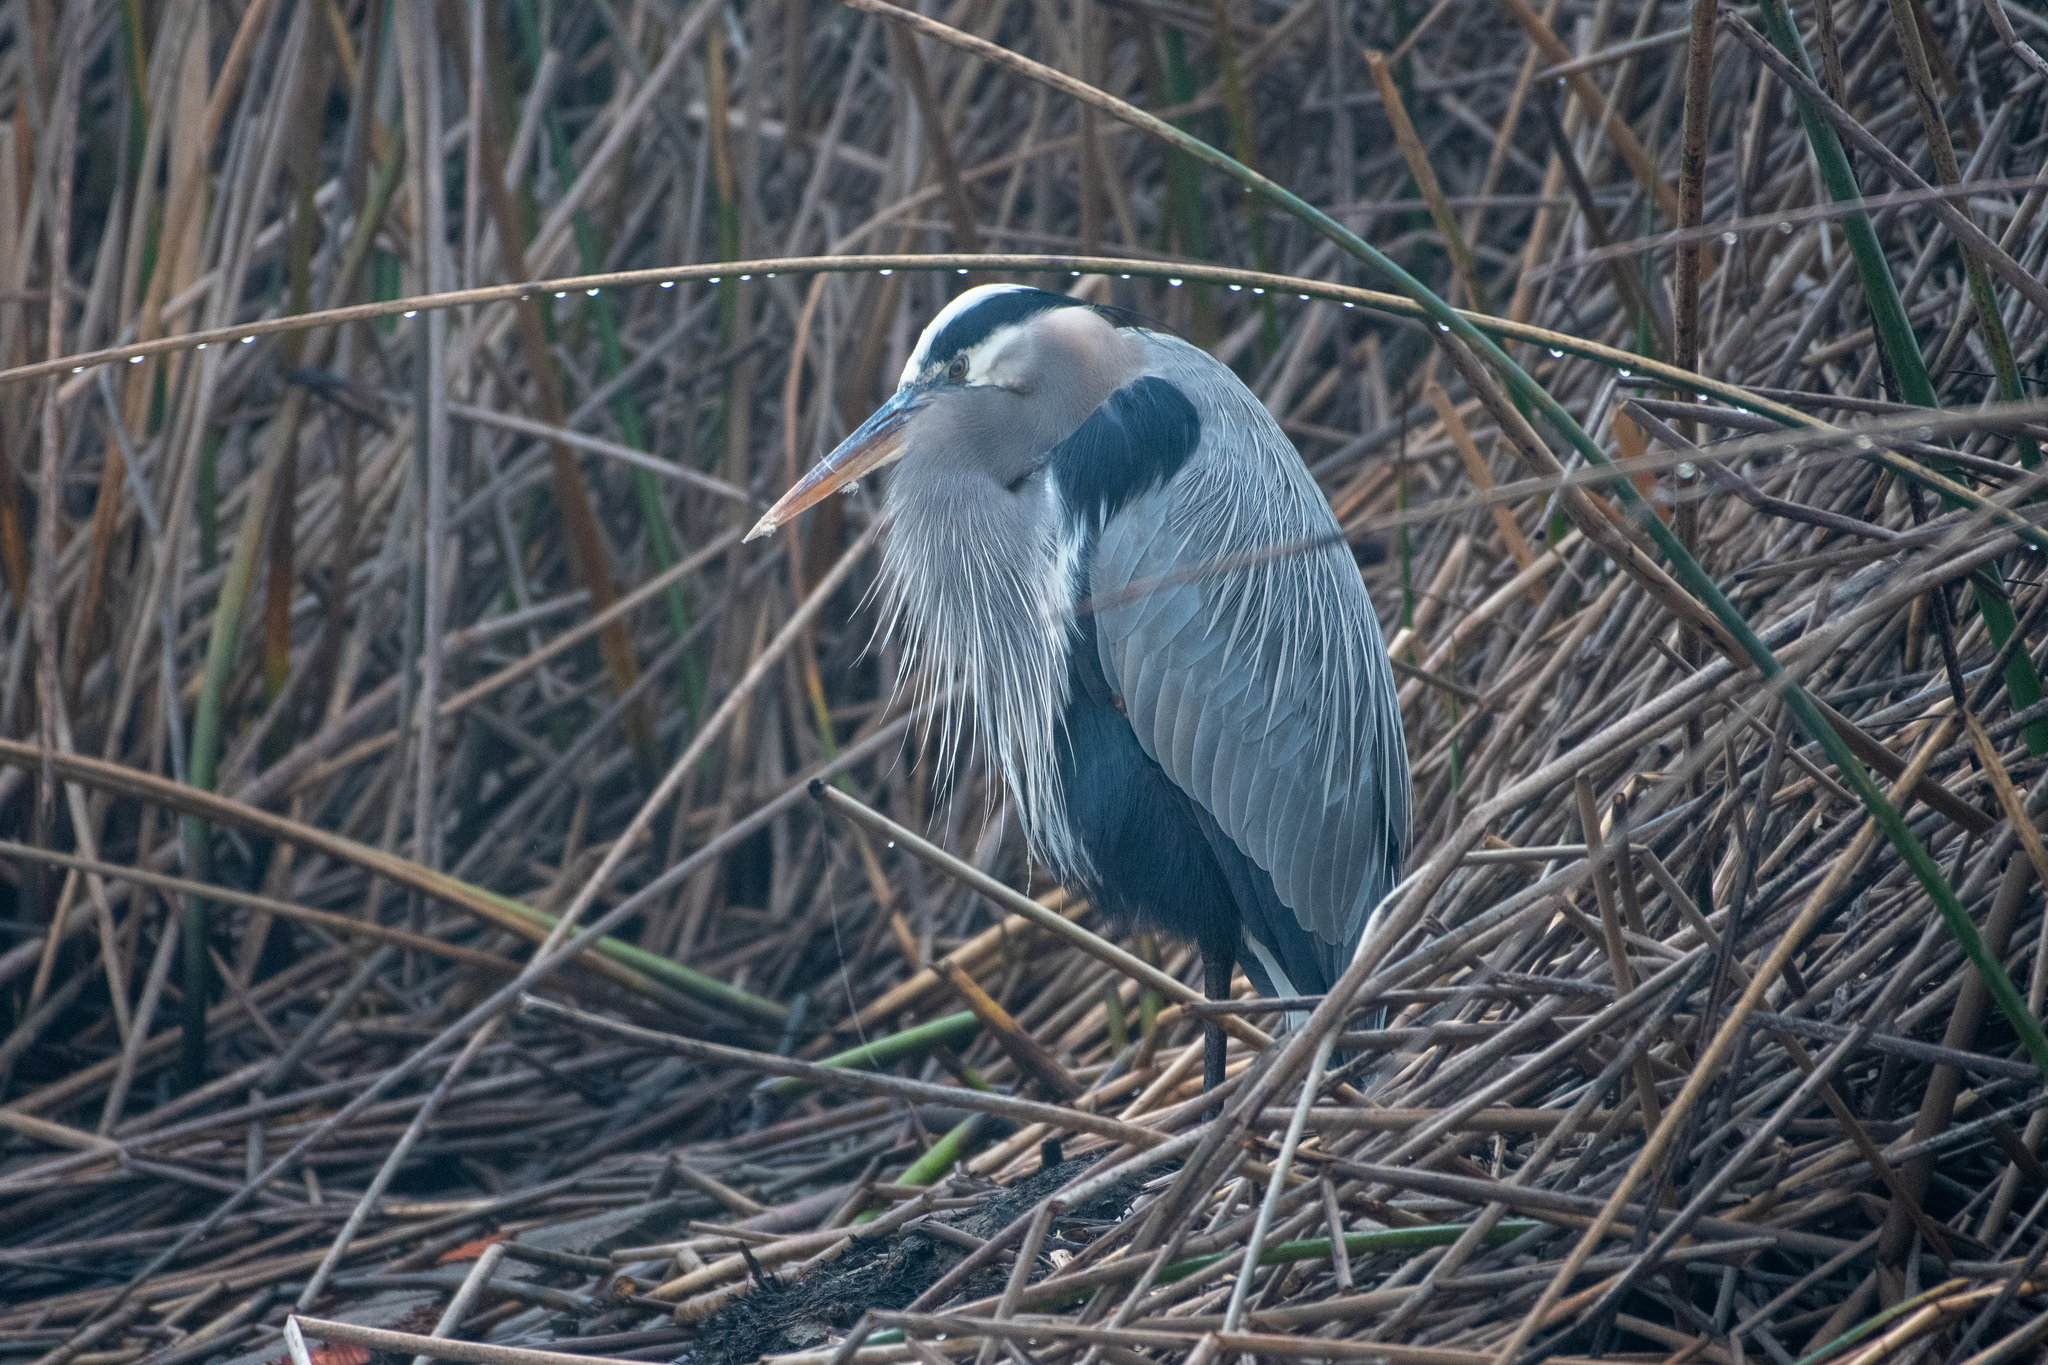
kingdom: Animalia
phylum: Chordata
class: Aves
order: Pelecaniformes
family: Ardeidae
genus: Ardea
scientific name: Ardea herodias
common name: Great blue heron
